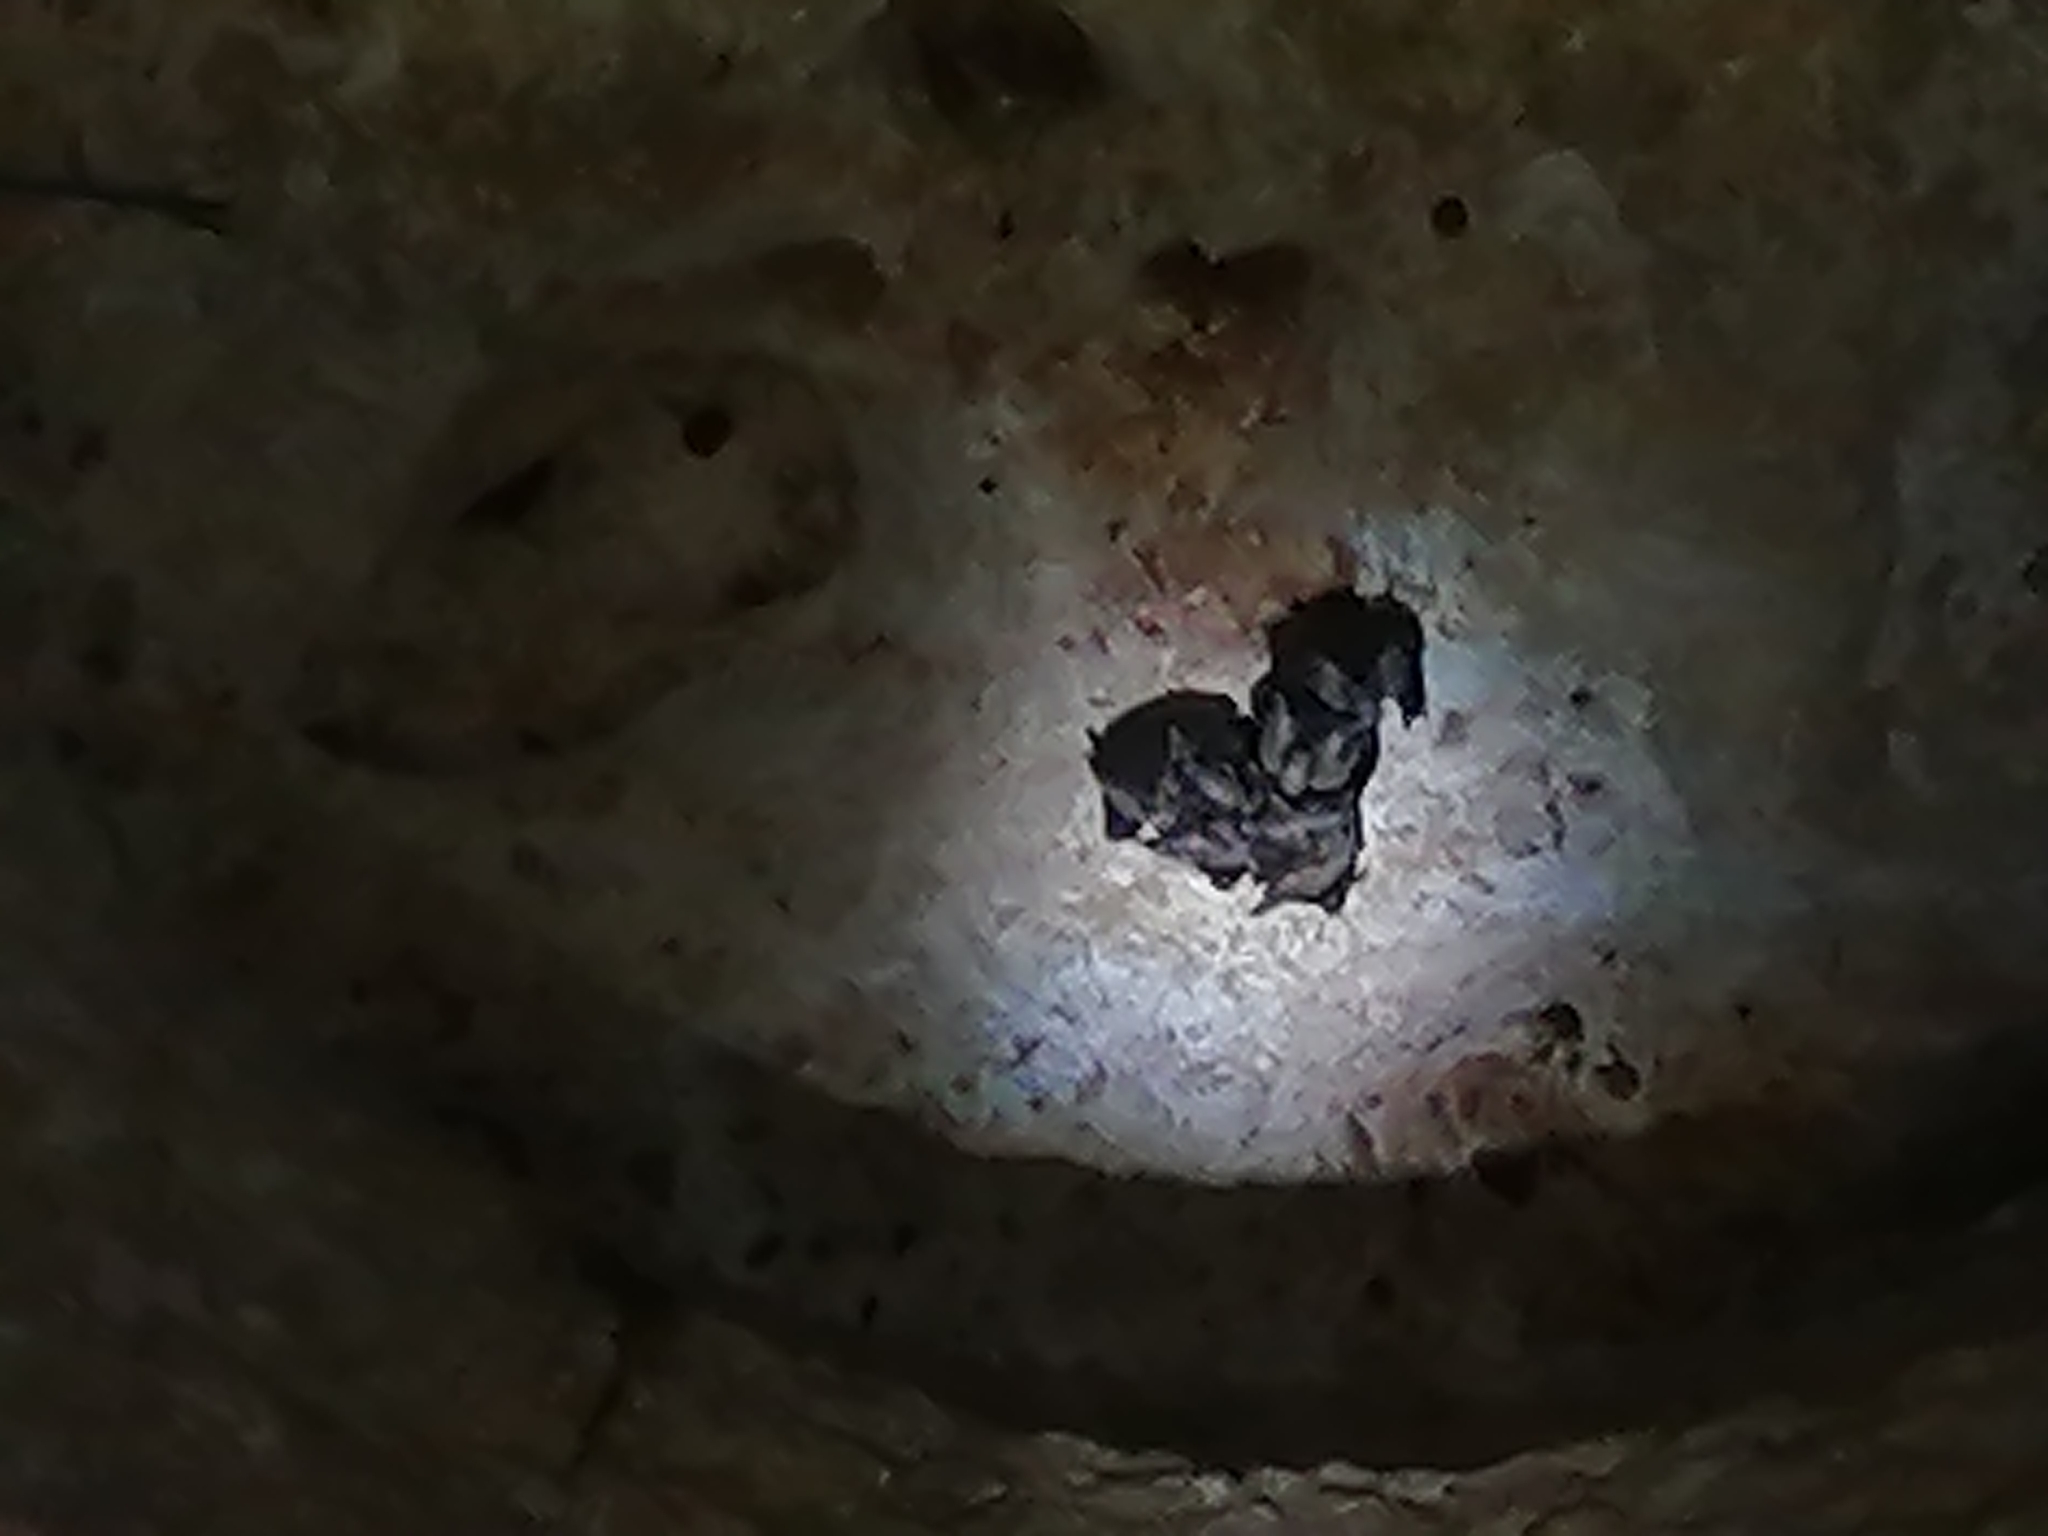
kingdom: Animalia
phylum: Chordata
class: Mammalia
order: Chiroptera
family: Phyllostomidae
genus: Chrotopterus
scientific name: Chrotopterus auritus
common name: Woolly false vampire bat
